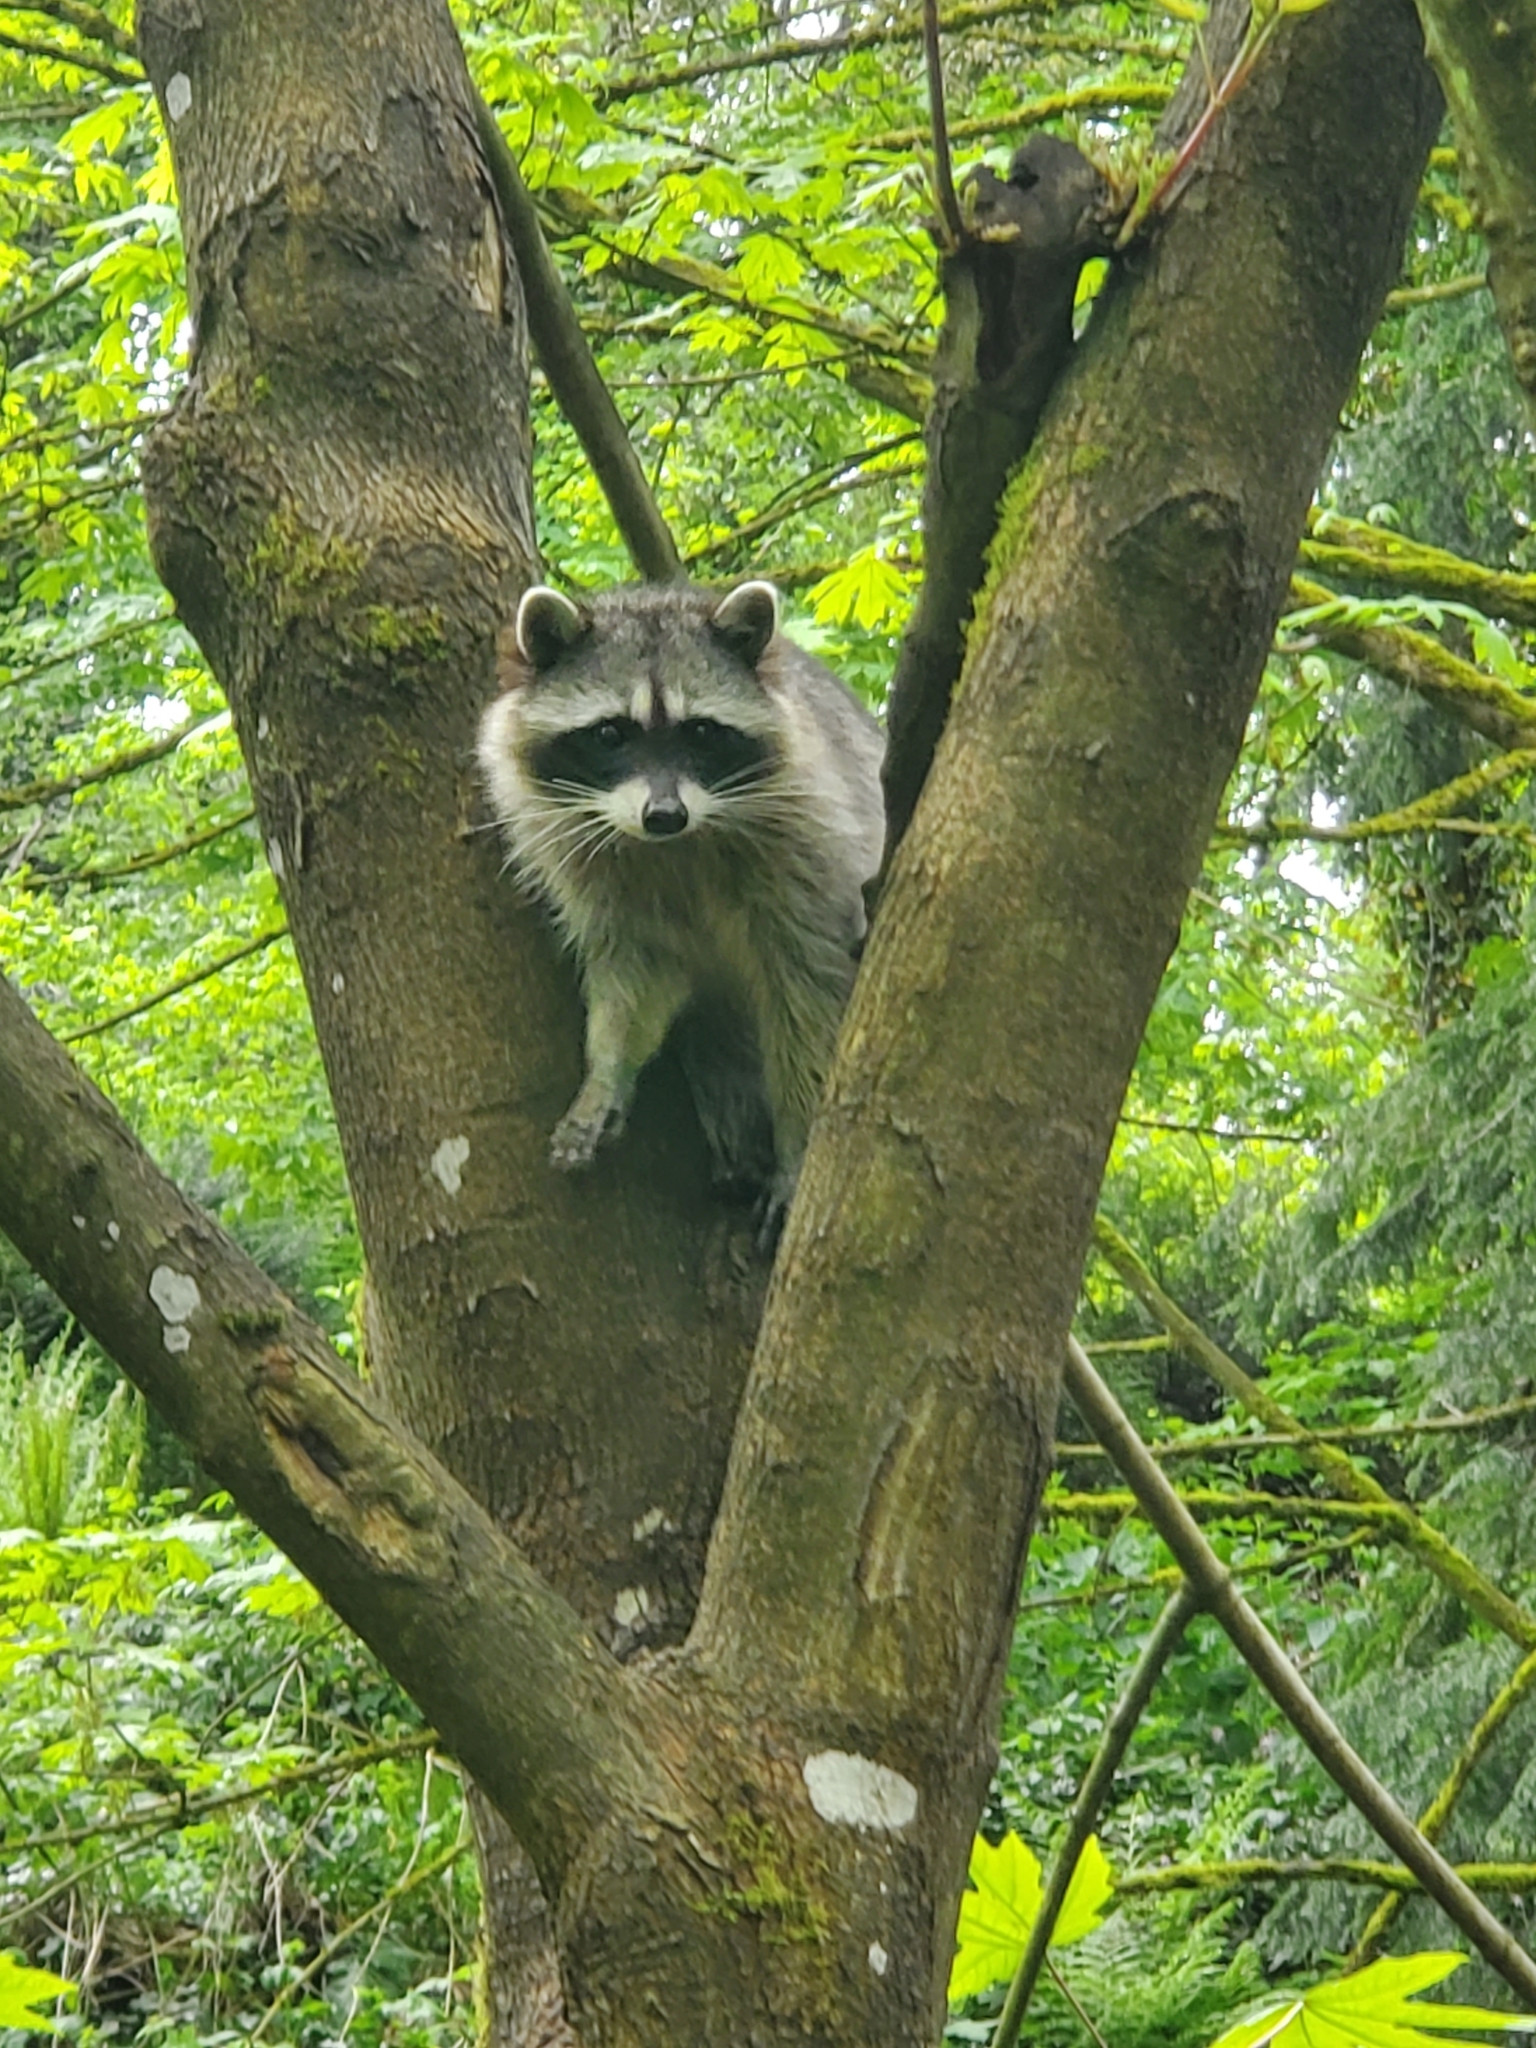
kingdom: Animalia
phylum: Chordata
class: Mammalia
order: Carnivora
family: Procyonidae
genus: Procyon
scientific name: Procyon lotor
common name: Raccoon
